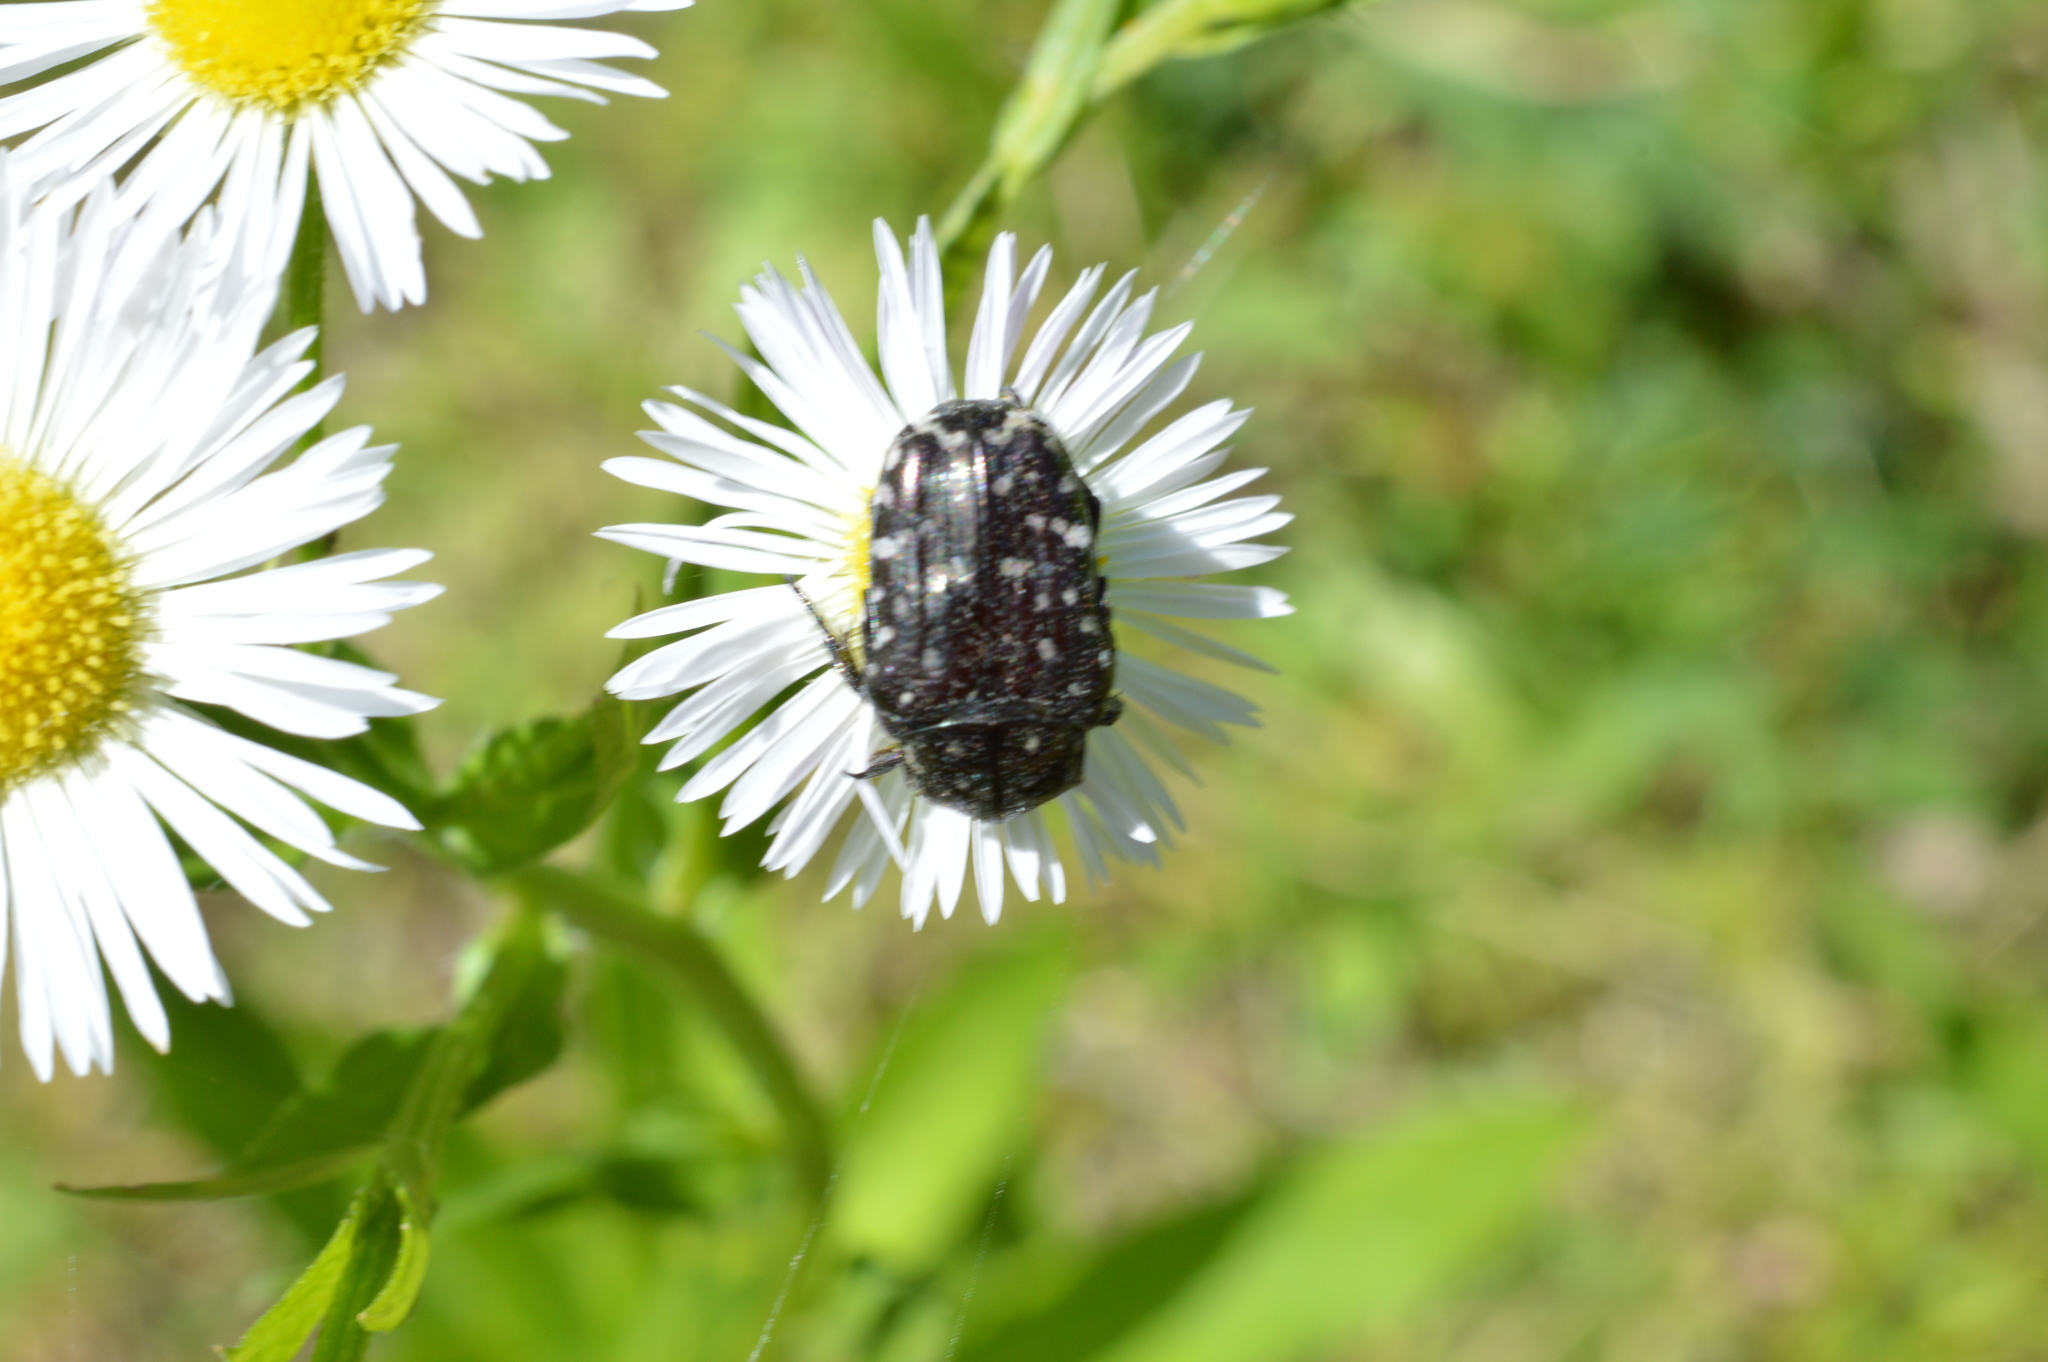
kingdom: Animalia
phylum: Arthropoda
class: Insecta
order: Coleoptera
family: Scarabaeidae
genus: Oxythyrea
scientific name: Oxythyrea funesta
